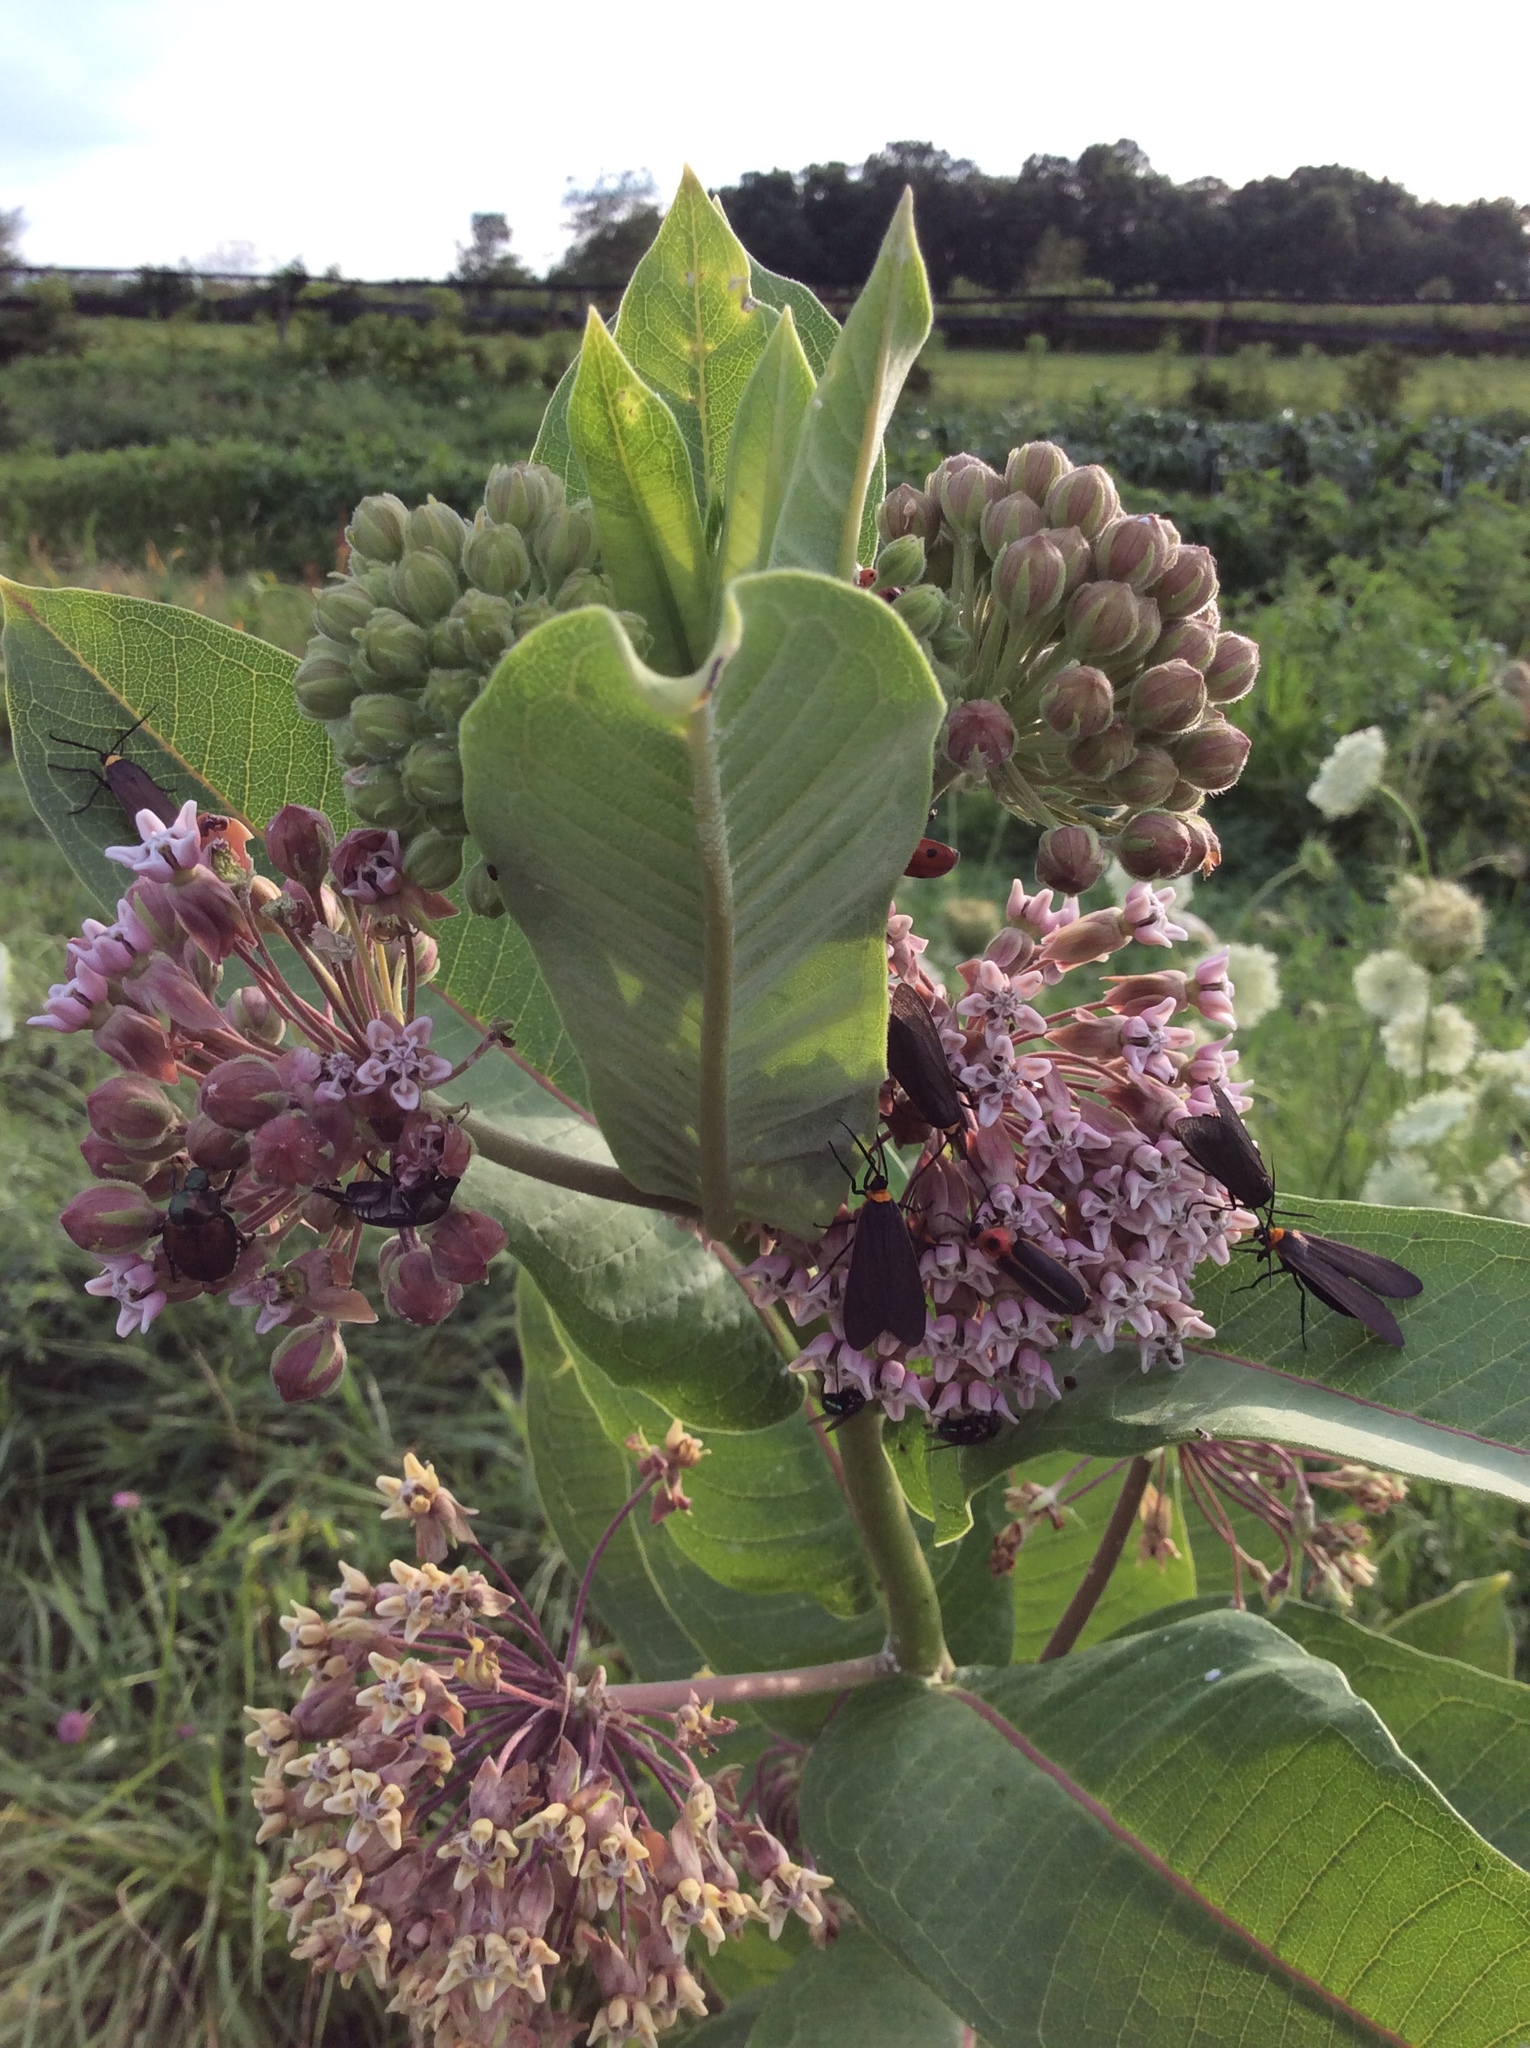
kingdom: Plantae
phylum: Tracheophyta
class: Magnoliopsida
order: Gentianales
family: Apocynaceae
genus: Asclepias
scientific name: Asclepias syriaca
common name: Common milkweed
